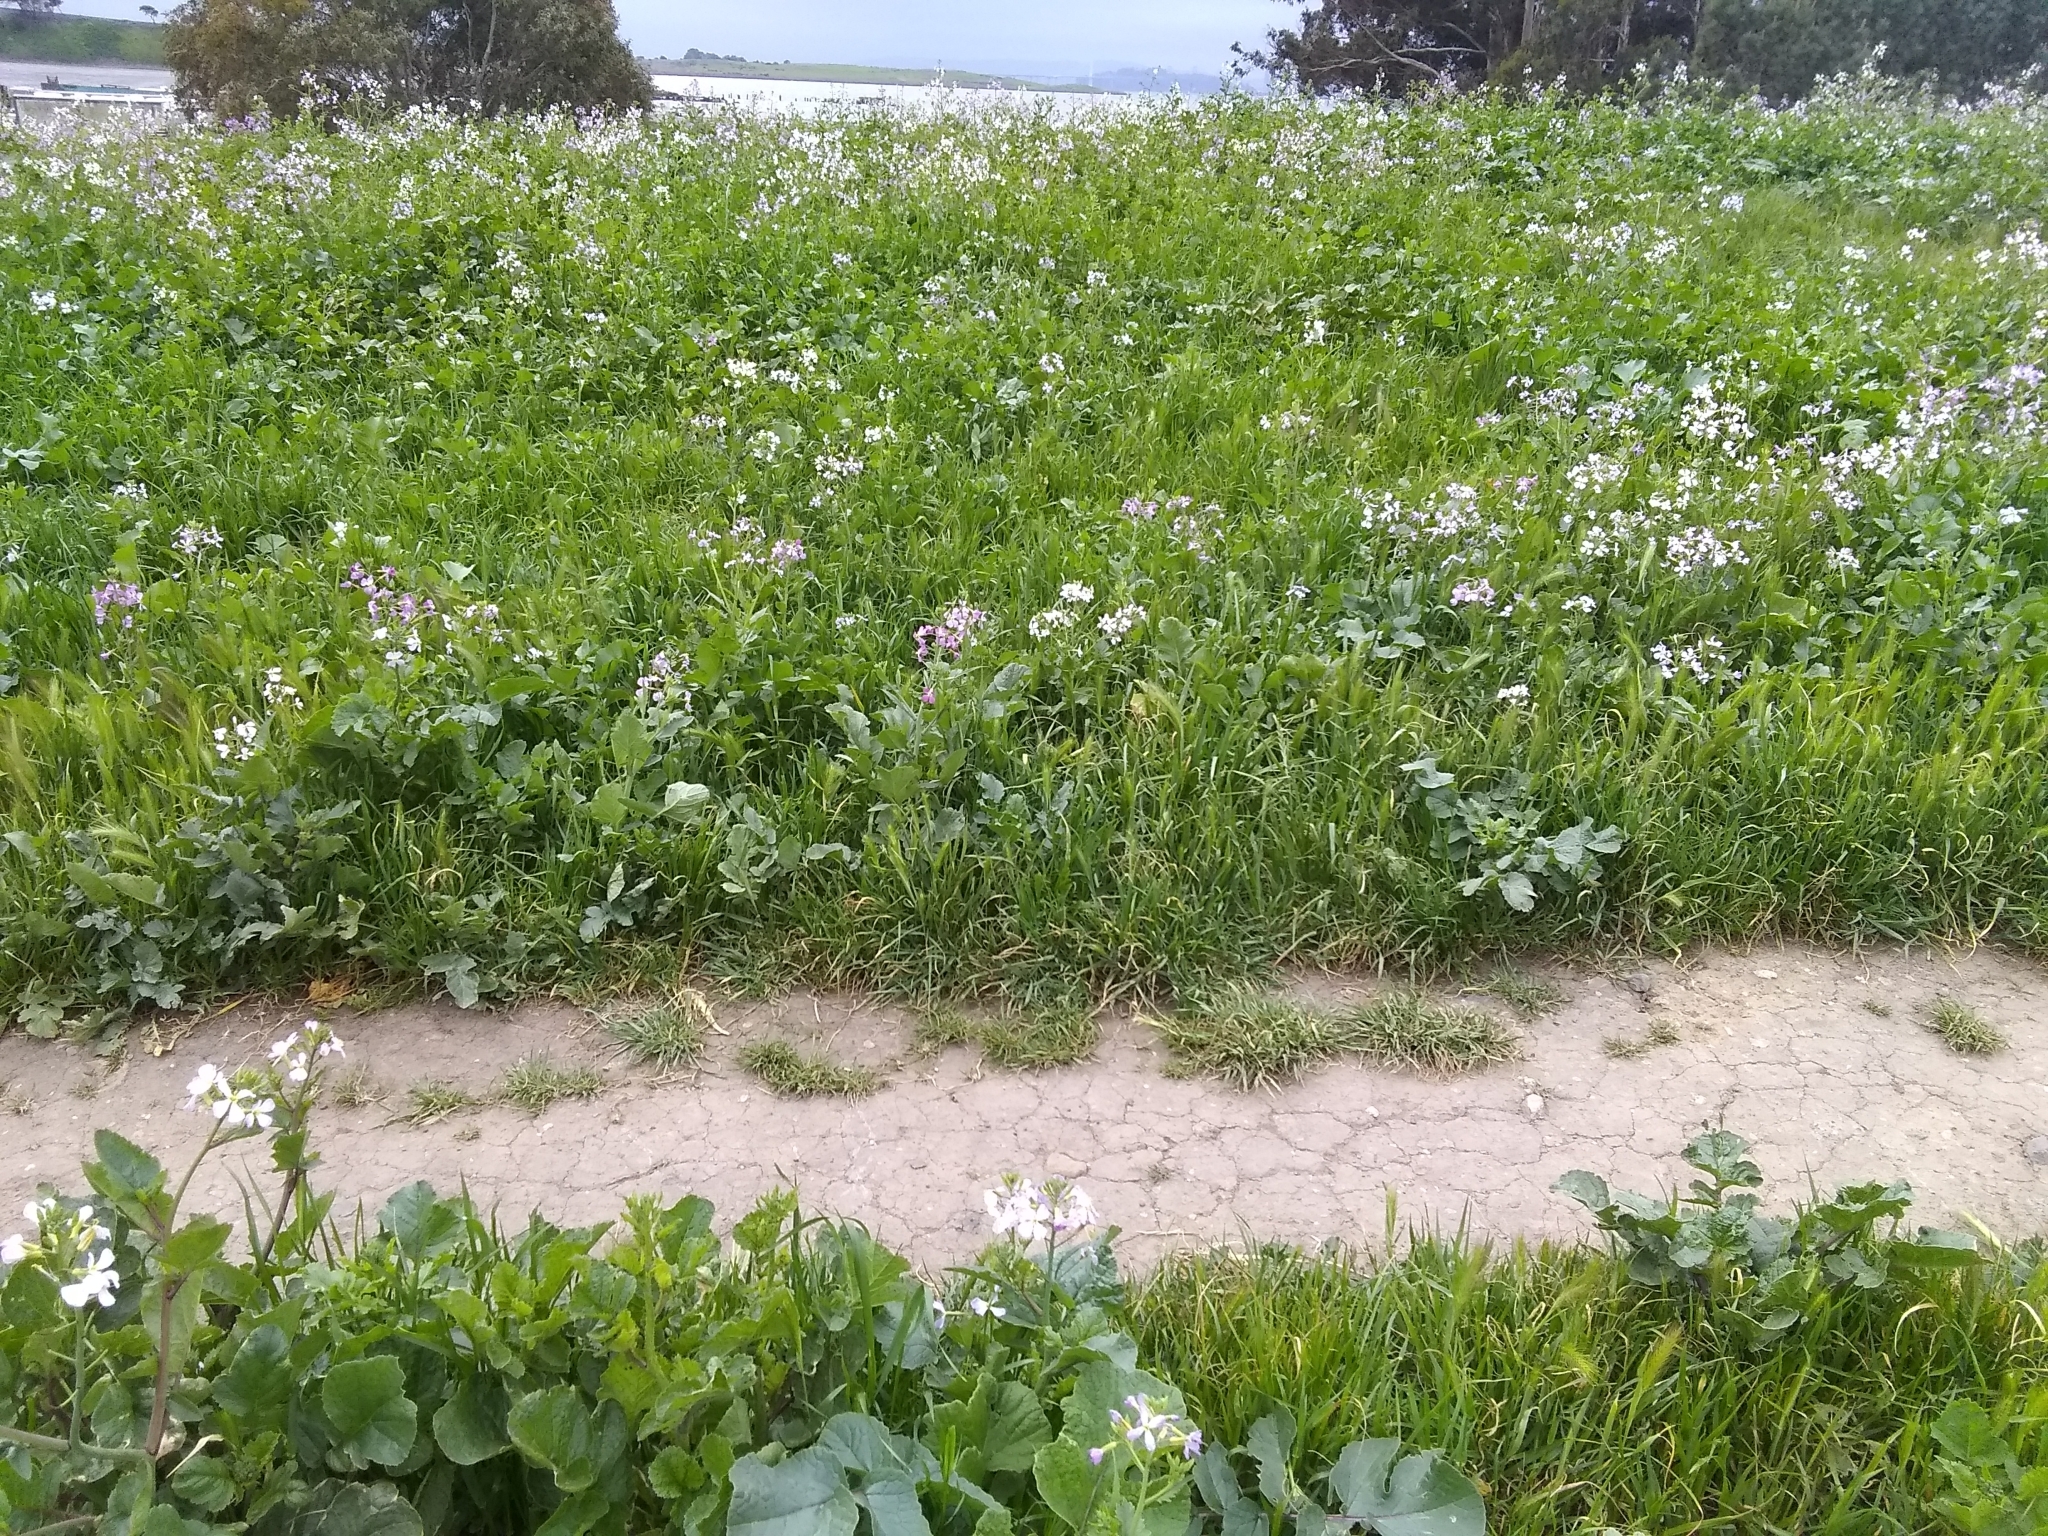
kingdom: Plantae
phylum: Tracheophyta
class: Magnoliopsida
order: Brassicales
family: Brassicaceae
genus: Raphanus
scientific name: Raphanus sativus
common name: Cultivated radish
